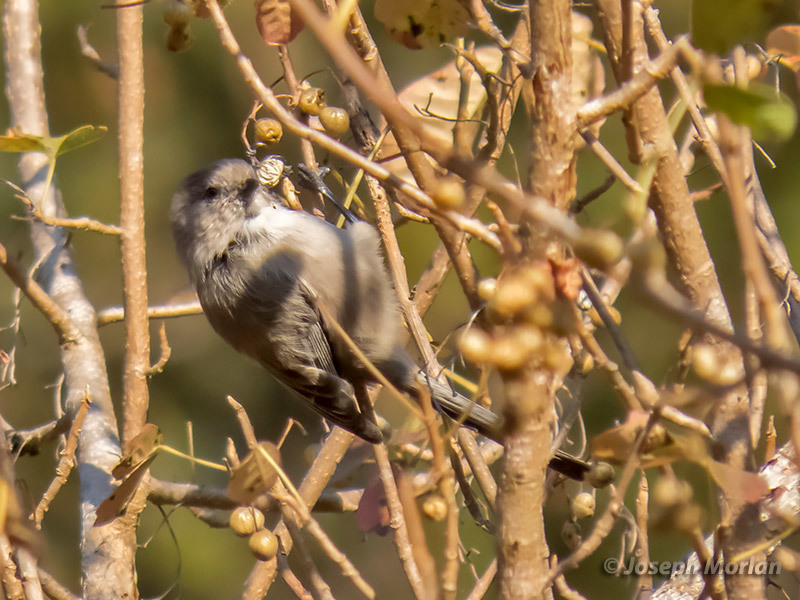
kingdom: Animalia
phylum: Chordata
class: Aves
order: Passeriformes
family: Aegithalidae
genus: Psaltriparus
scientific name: Psaltriparus minimus
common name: American bushtit
